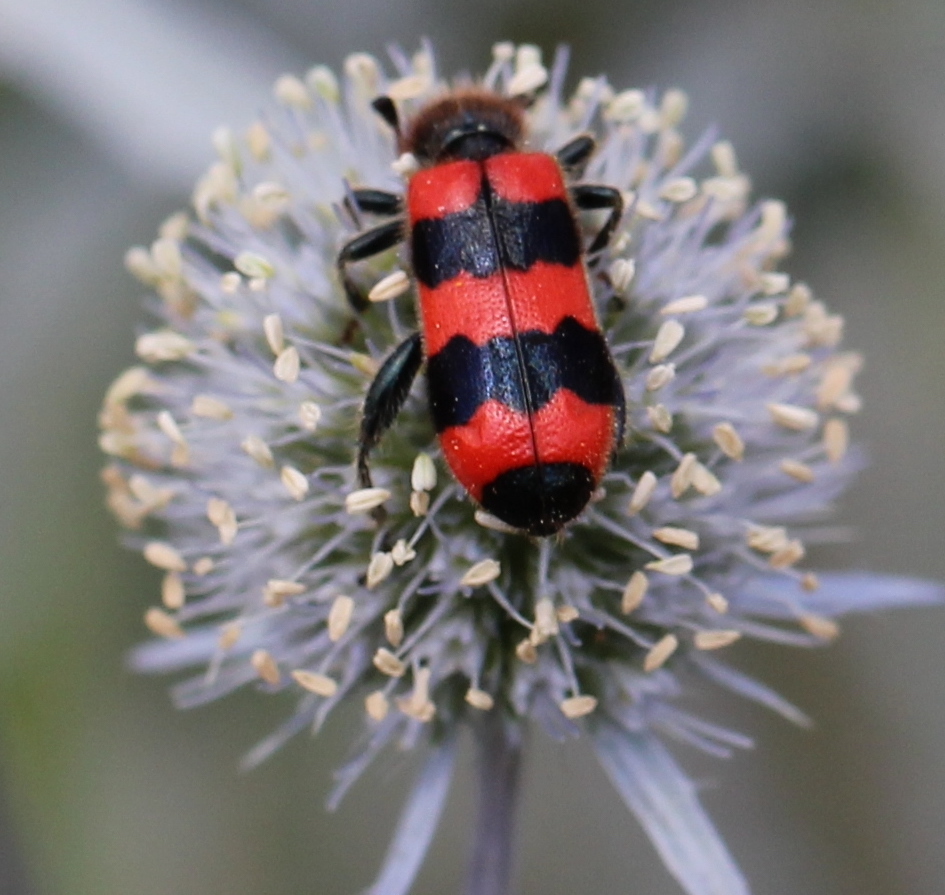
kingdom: Animalia
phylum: Arthropoda
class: Insecta
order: Coleoptera
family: Cleridae
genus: Trichodes
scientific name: Trichodes apiarius
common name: Bee-eating beetle
